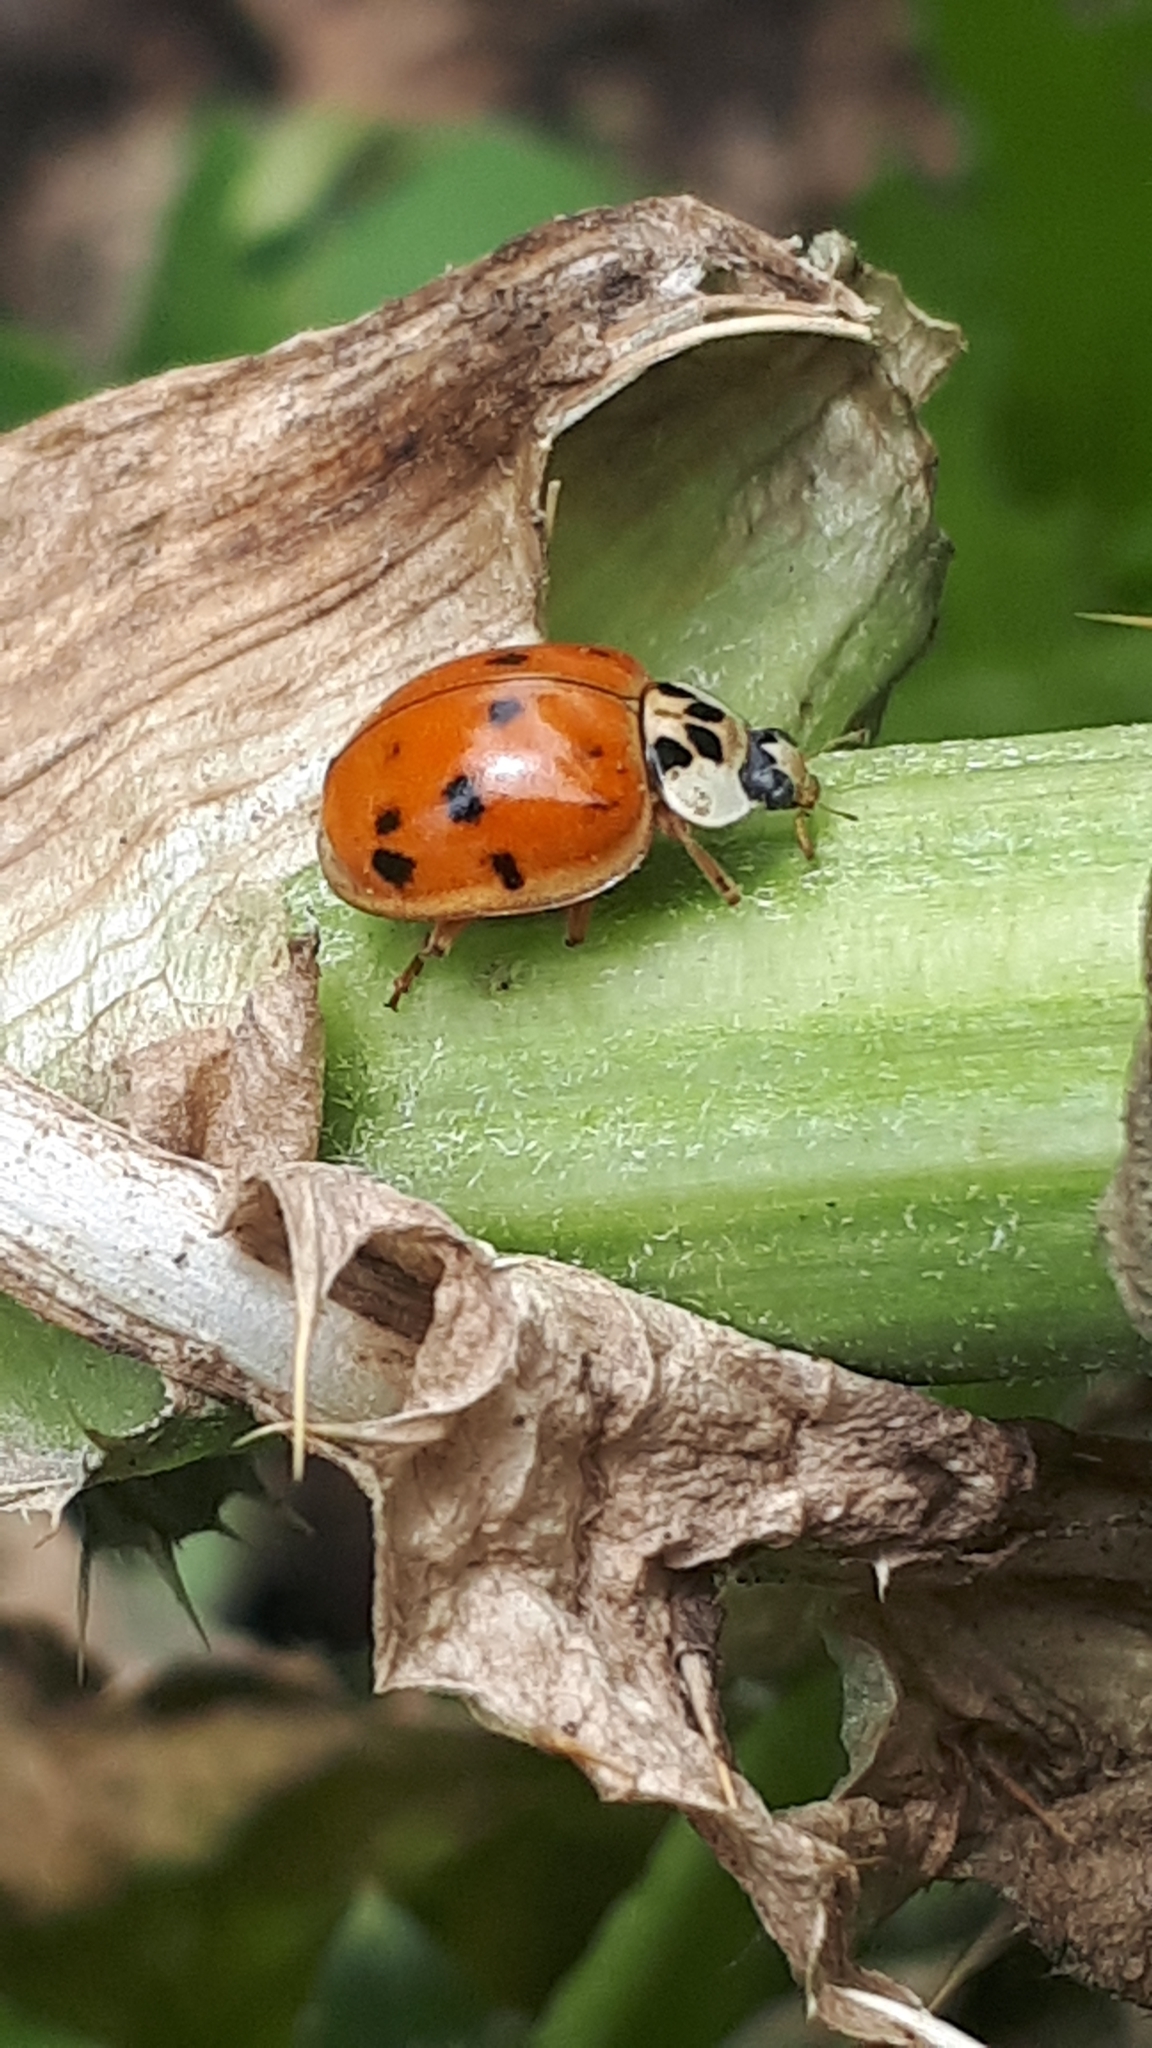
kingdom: Animalia
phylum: Arthropoda
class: Insecta
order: Coleoptera
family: Coccinellidae
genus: Harmonia
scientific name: Harmonia axyridis
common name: Harlequin ladybird
